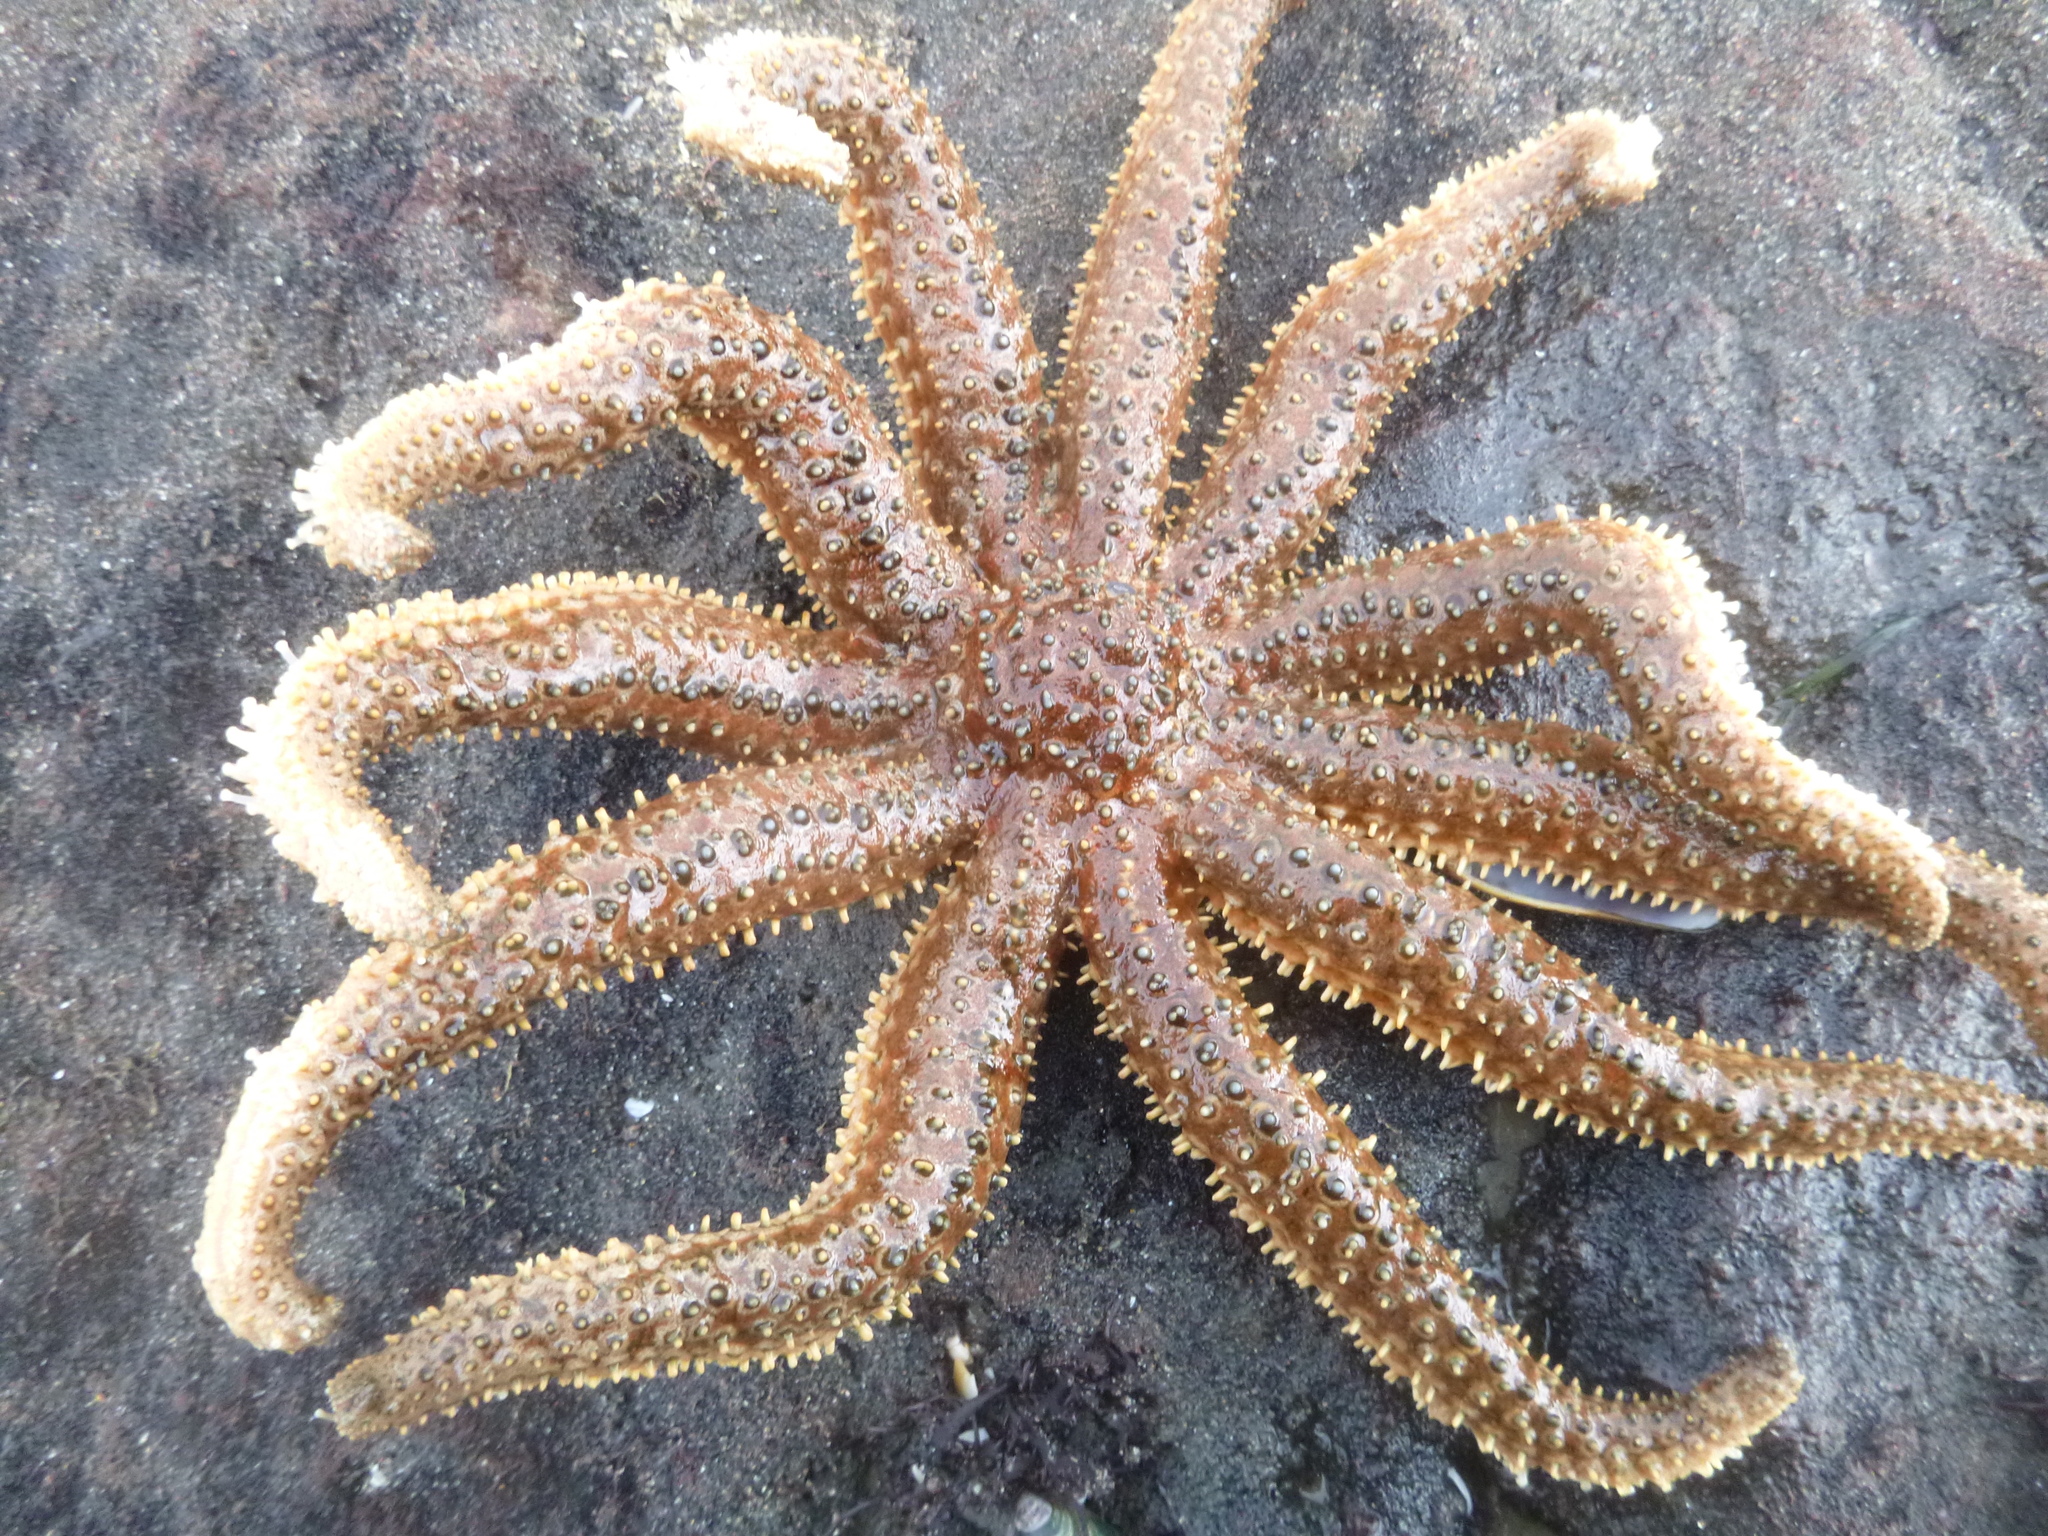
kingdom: Animalia
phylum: Echinodermata
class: Asteroidea
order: Forcipulatida
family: Asteriidae
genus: Coscinasterias
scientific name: Coscinasterias muricata
